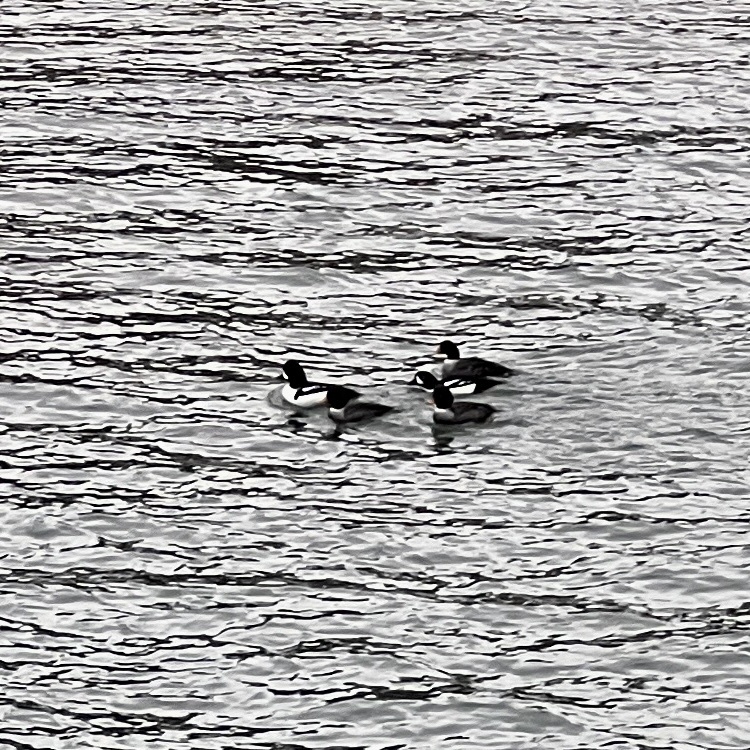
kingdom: Animalia
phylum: Chordata
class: Aves
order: Anseriformes
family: Anatidae
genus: Bucephala
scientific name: Bucephala islandica
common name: Barrow's goldeneye
